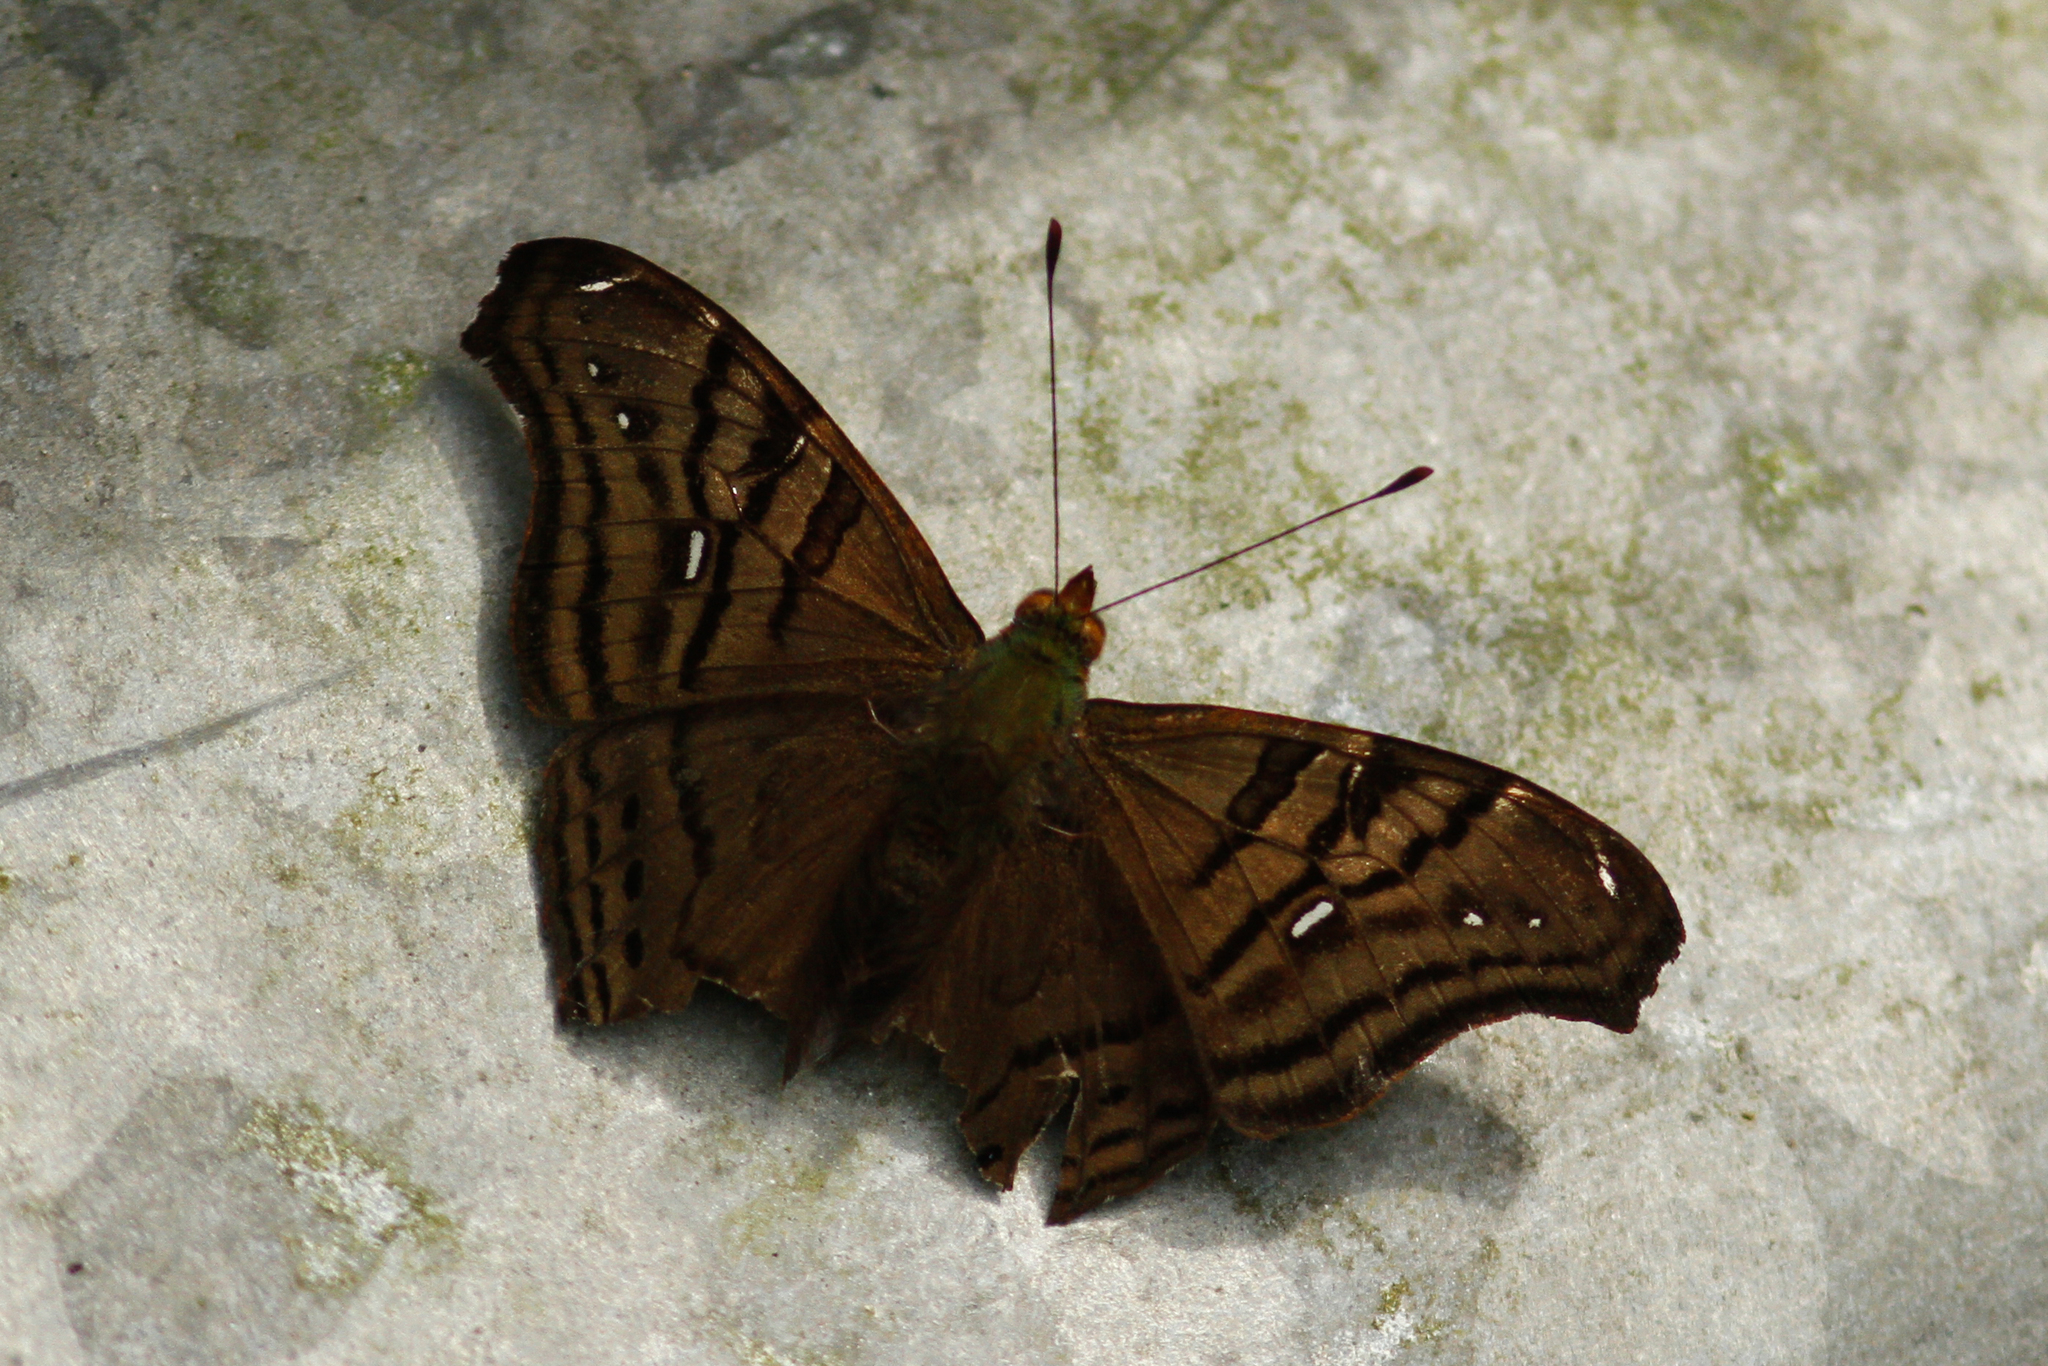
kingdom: Animalia
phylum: Arthropoda
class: Insecta
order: Lepidoptera
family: Nymphalidae
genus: Hypanartia
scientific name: Hypanartia dione
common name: Banded mapwing
